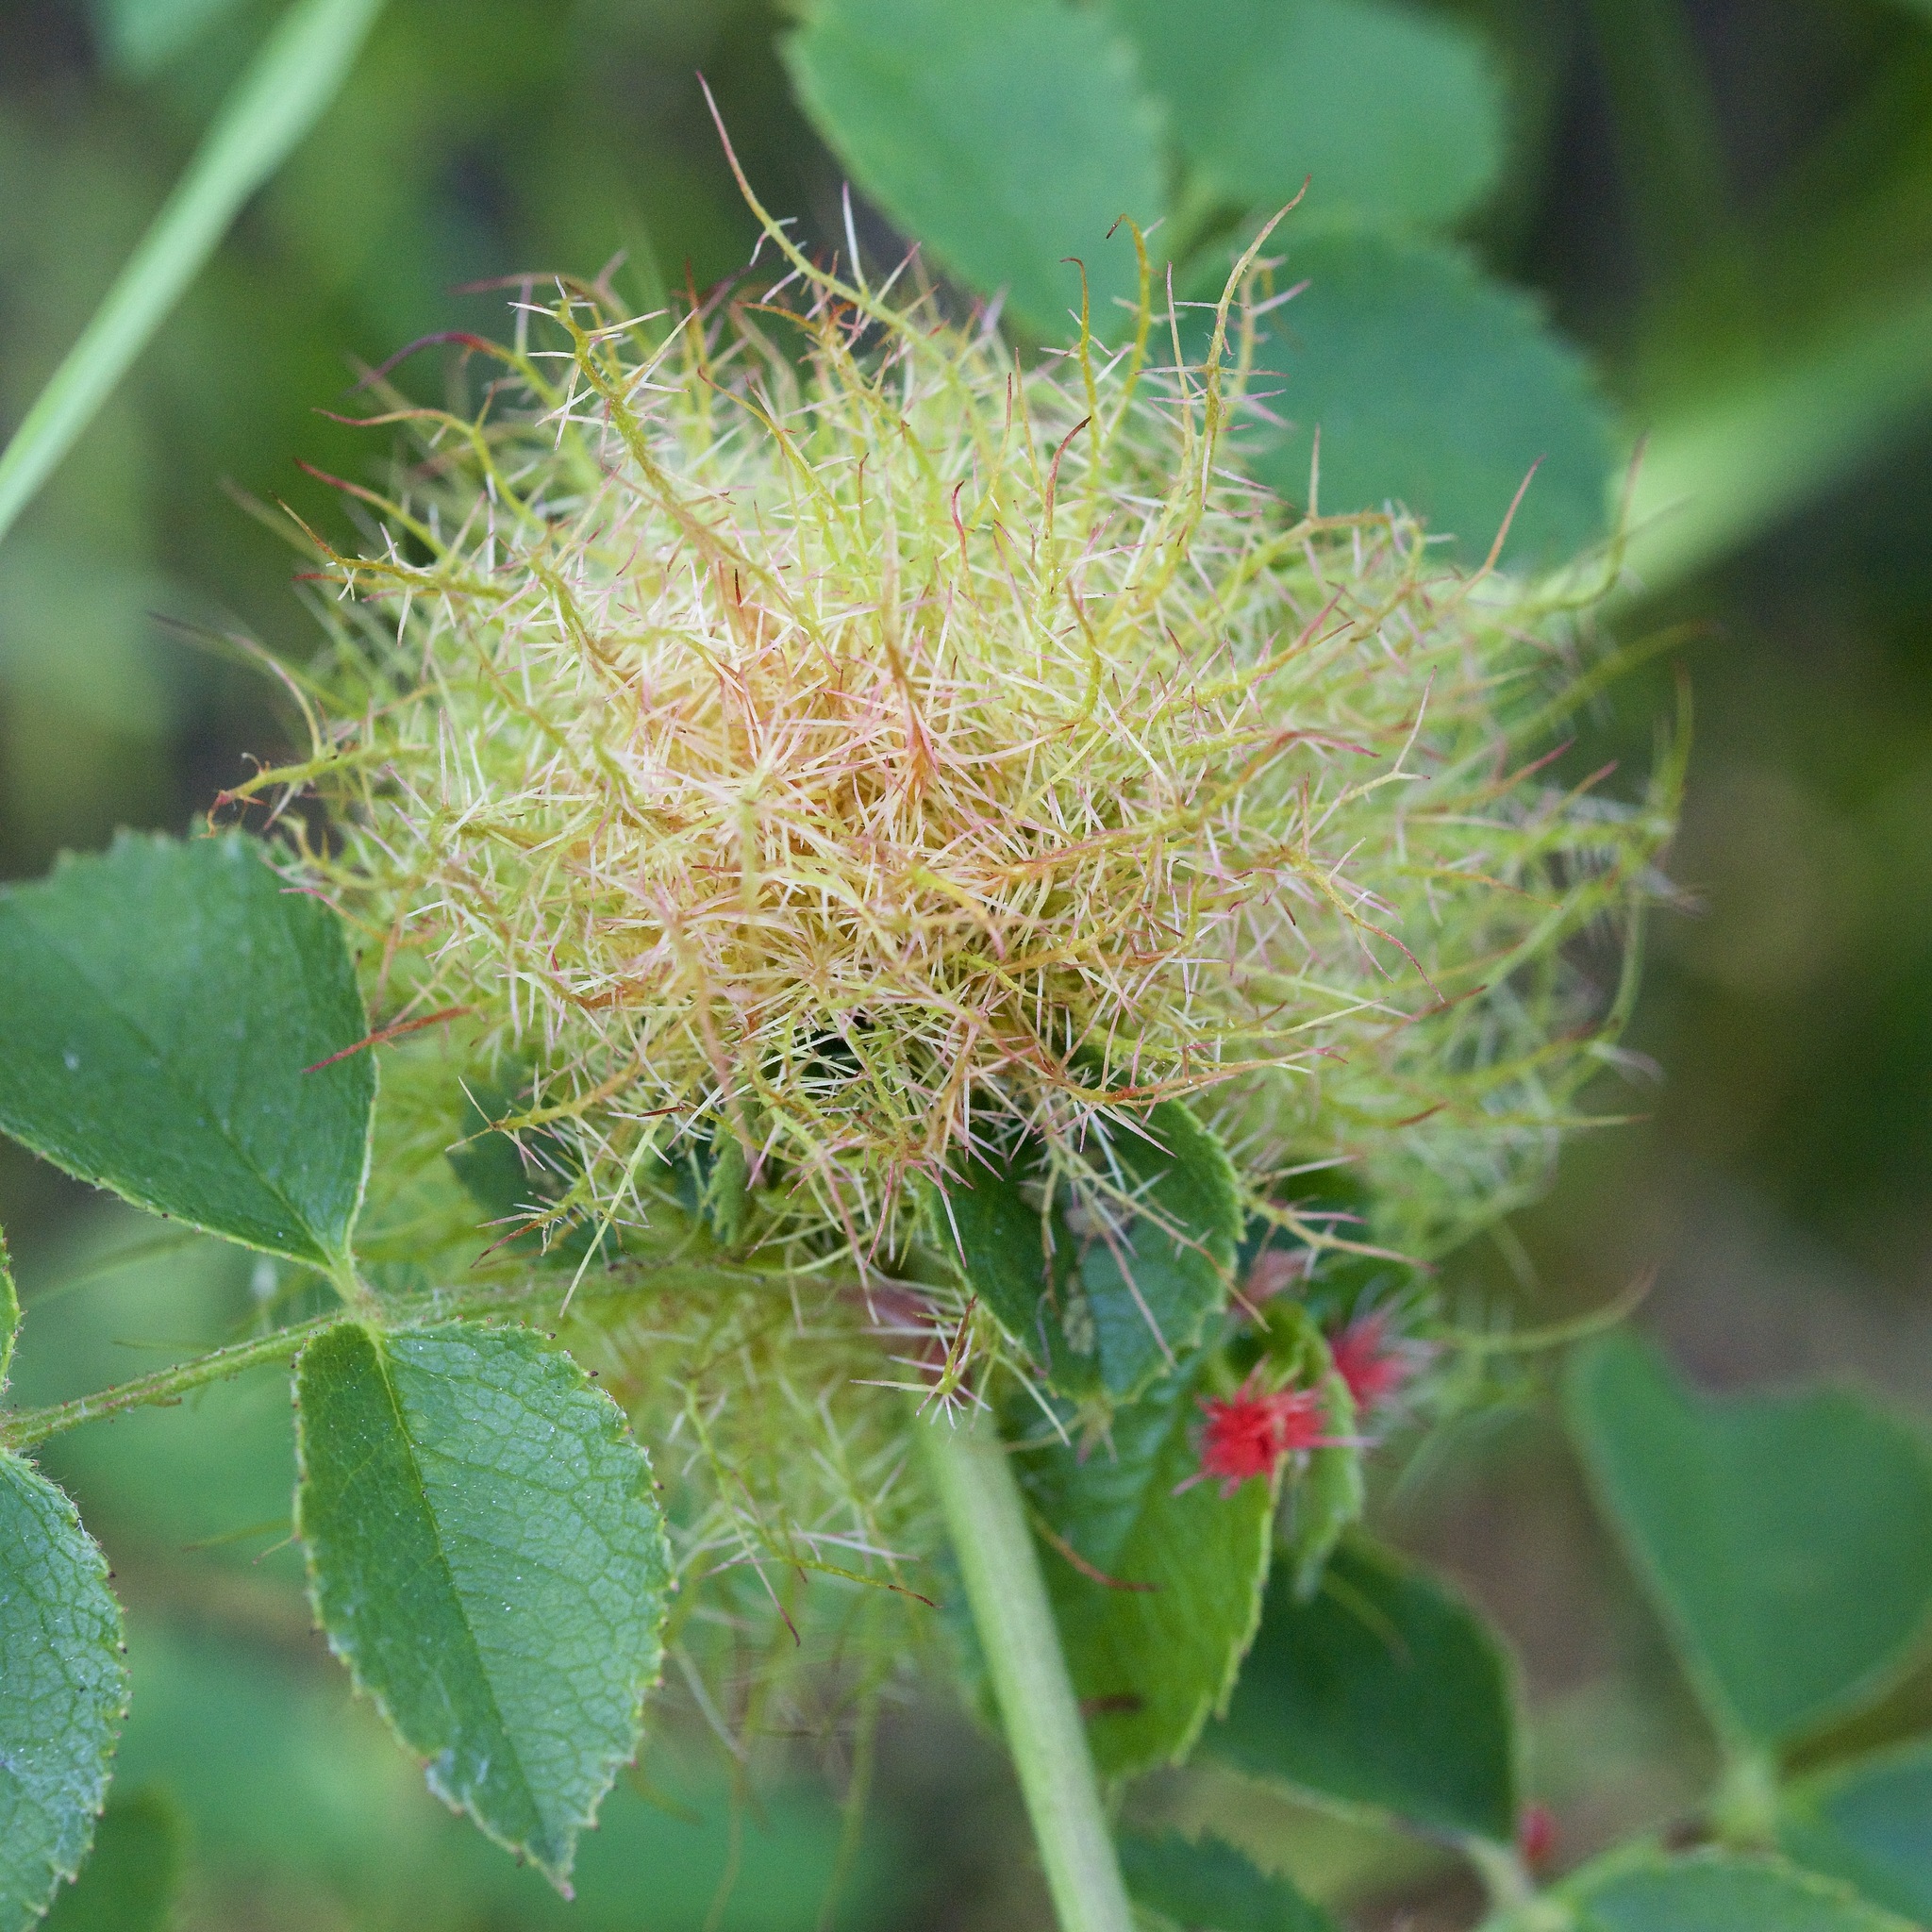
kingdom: Animalia
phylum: Arthropoda
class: Insecta
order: Hymenoptera
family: Cynipidae
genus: Diplolepis
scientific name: Diplolepis rosae
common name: Bedeguar gall
